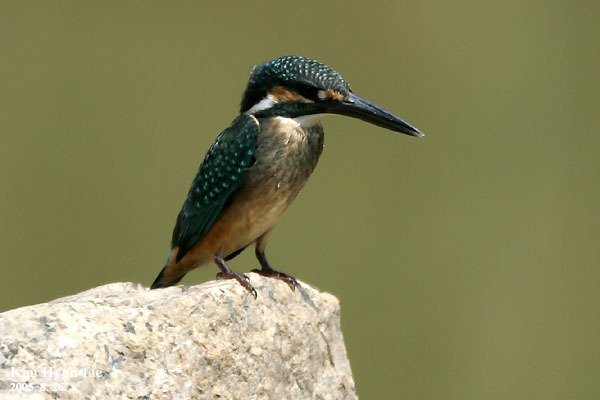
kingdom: Animalia
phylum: Chordata
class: Aves
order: Coraciiformes
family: Alcedinidae
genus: Alcedo
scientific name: Alcedo atthis
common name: Common kingfisher
